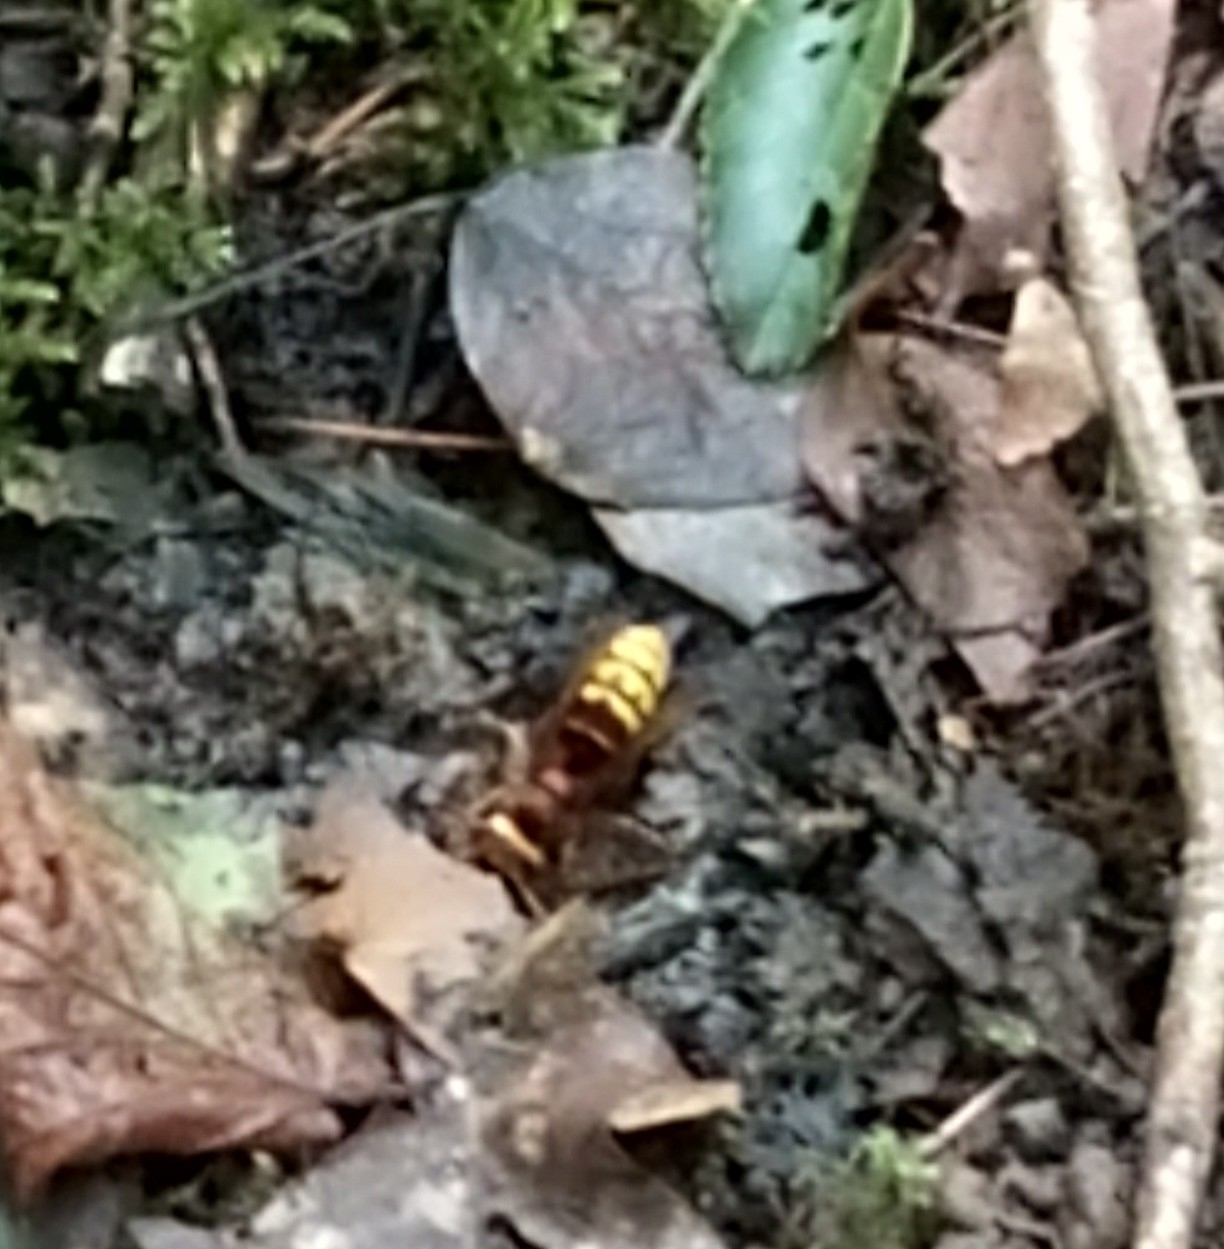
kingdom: Animalia
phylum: Arthropoda
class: Insecta
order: Hymenoptera
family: Vespidae
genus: Vespa
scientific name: Vespa crabro
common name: Hornet
